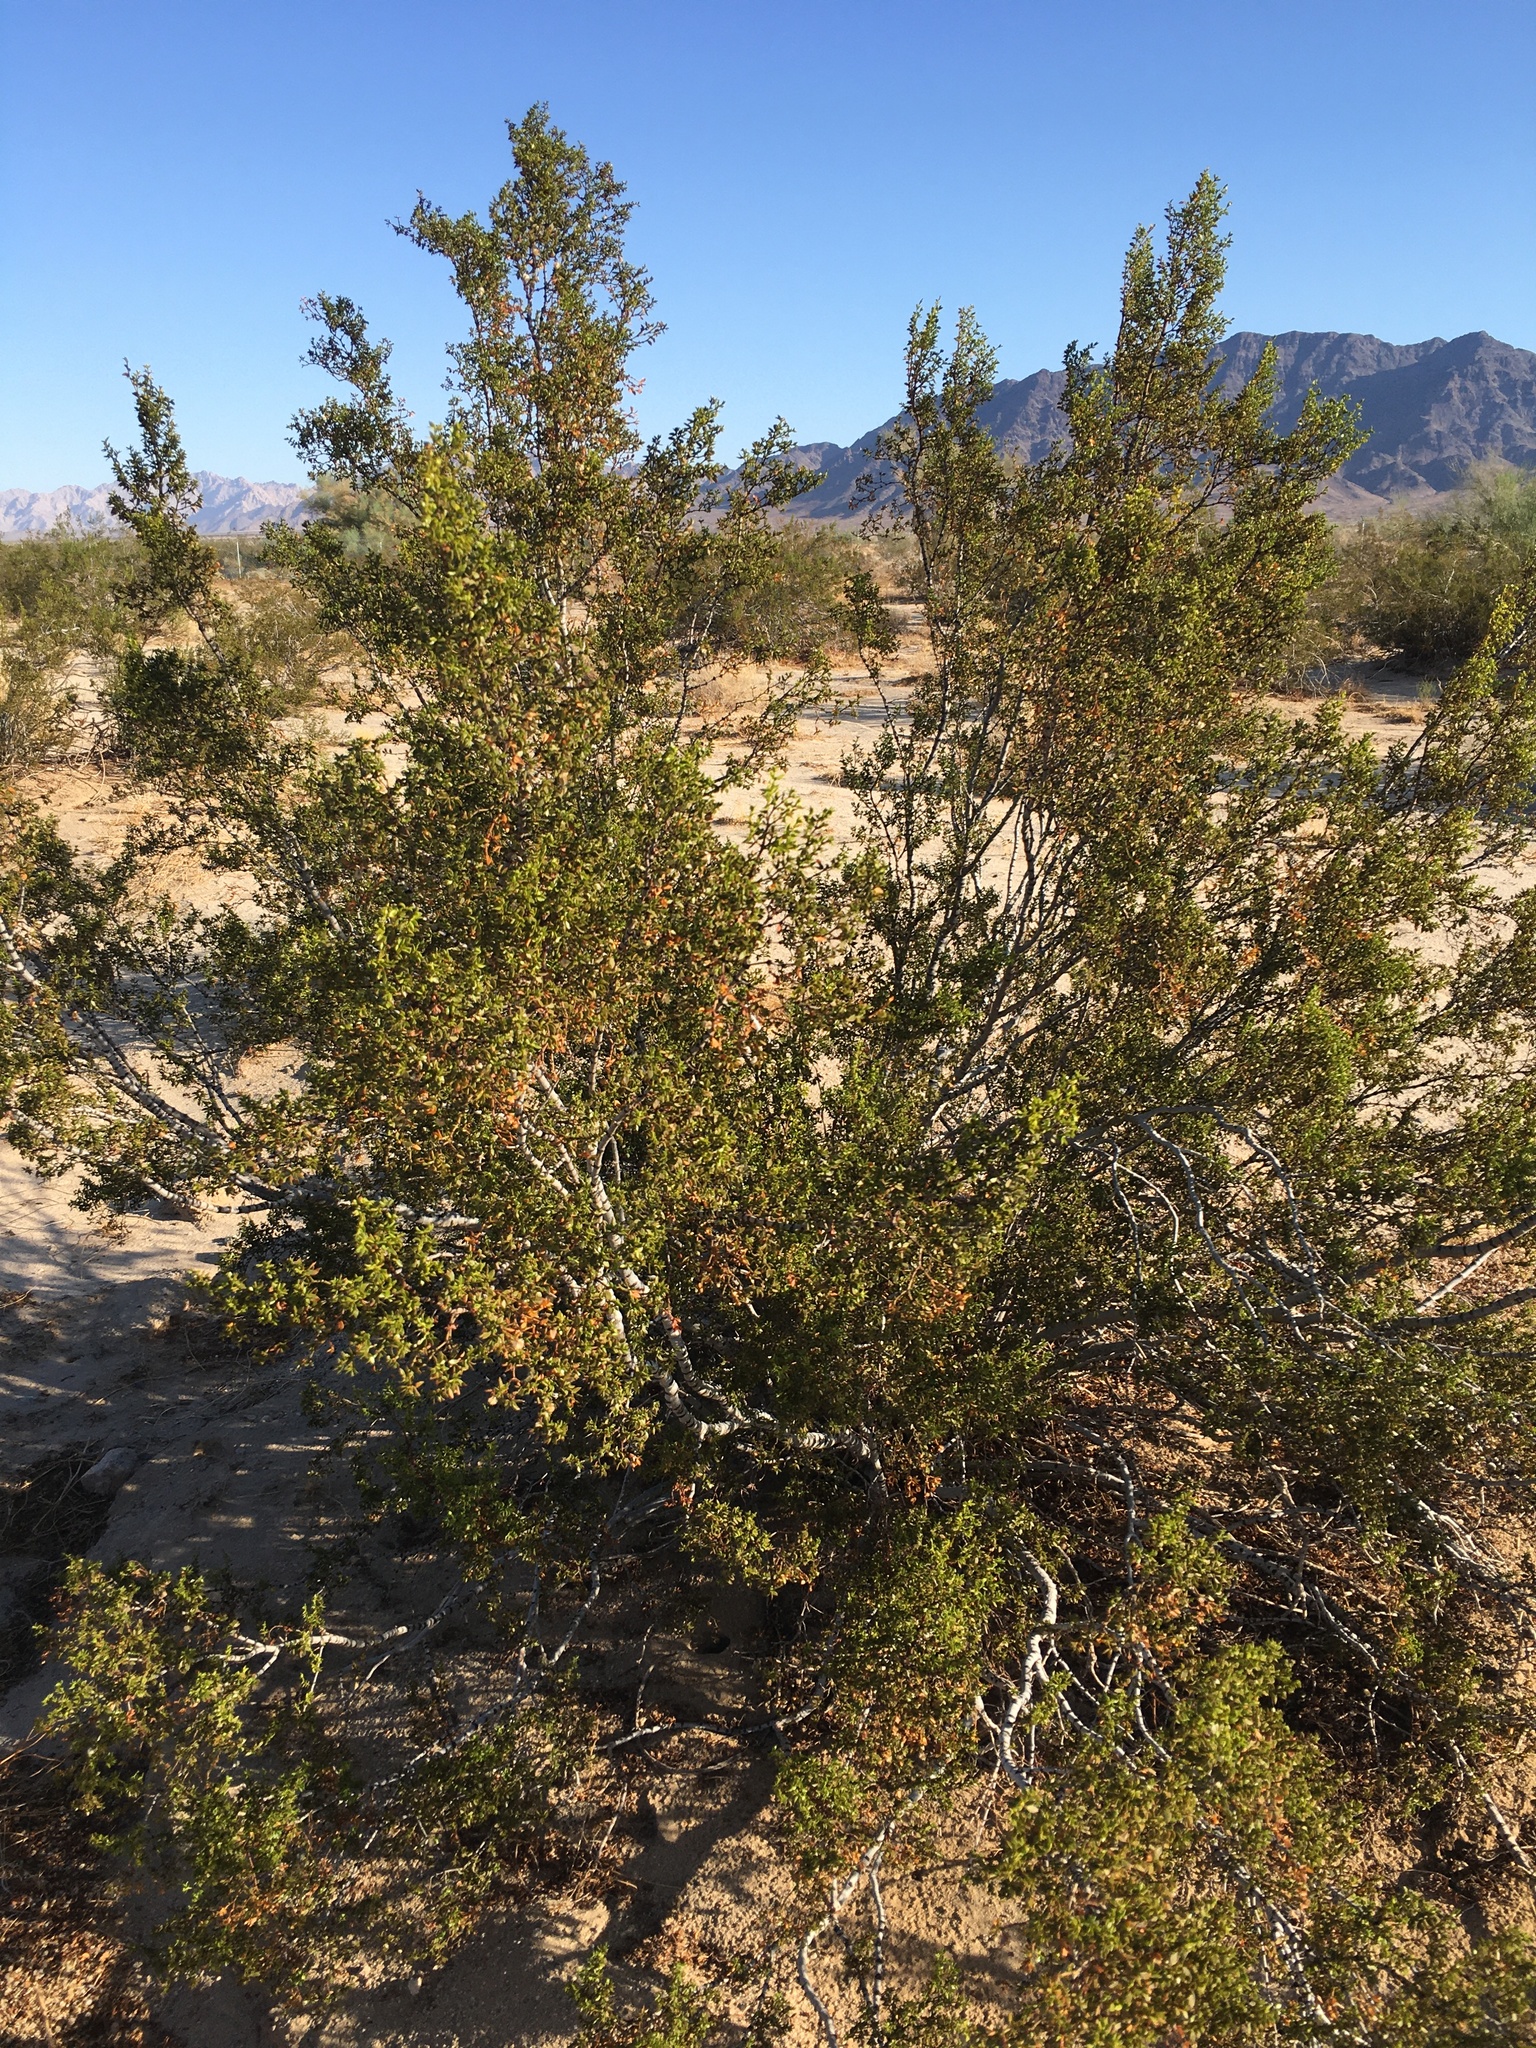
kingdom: Plantae
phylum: Tracheophyta
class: Magnoliopsida
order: Zygophyllales
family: Zygophyllaceae
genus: Larrea
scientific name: Larrea tridentata
